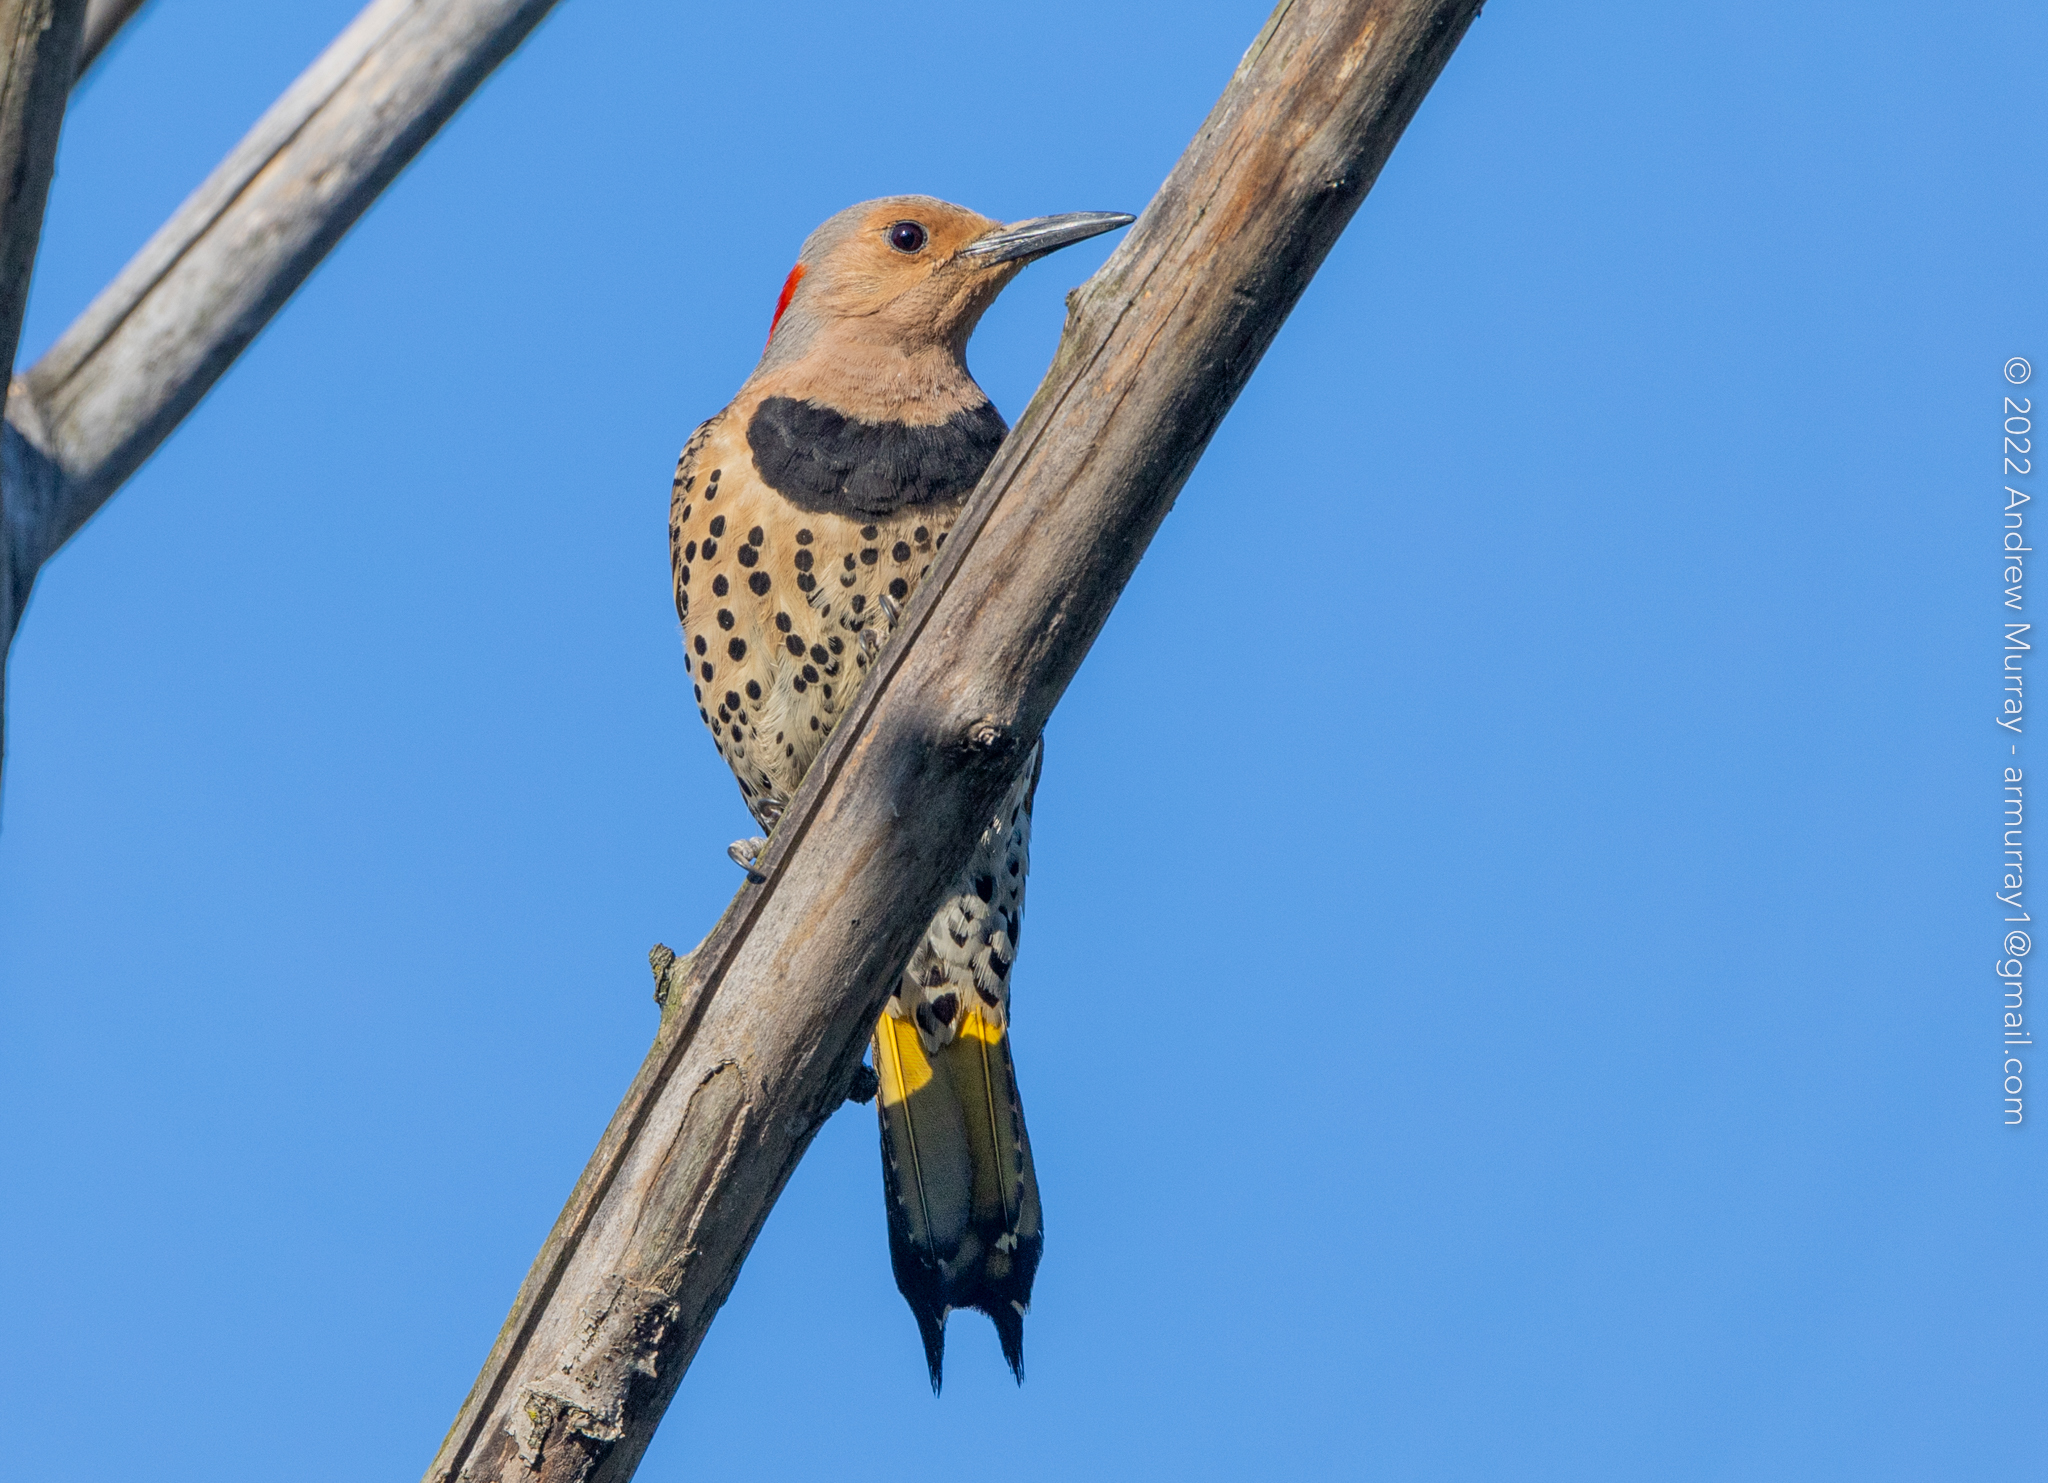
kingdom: Animalia
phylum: Chordata
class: Aves
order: Piciformes
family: Picidae
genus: Colaptes
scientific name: Colaptes auratus
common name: Northern flicker
